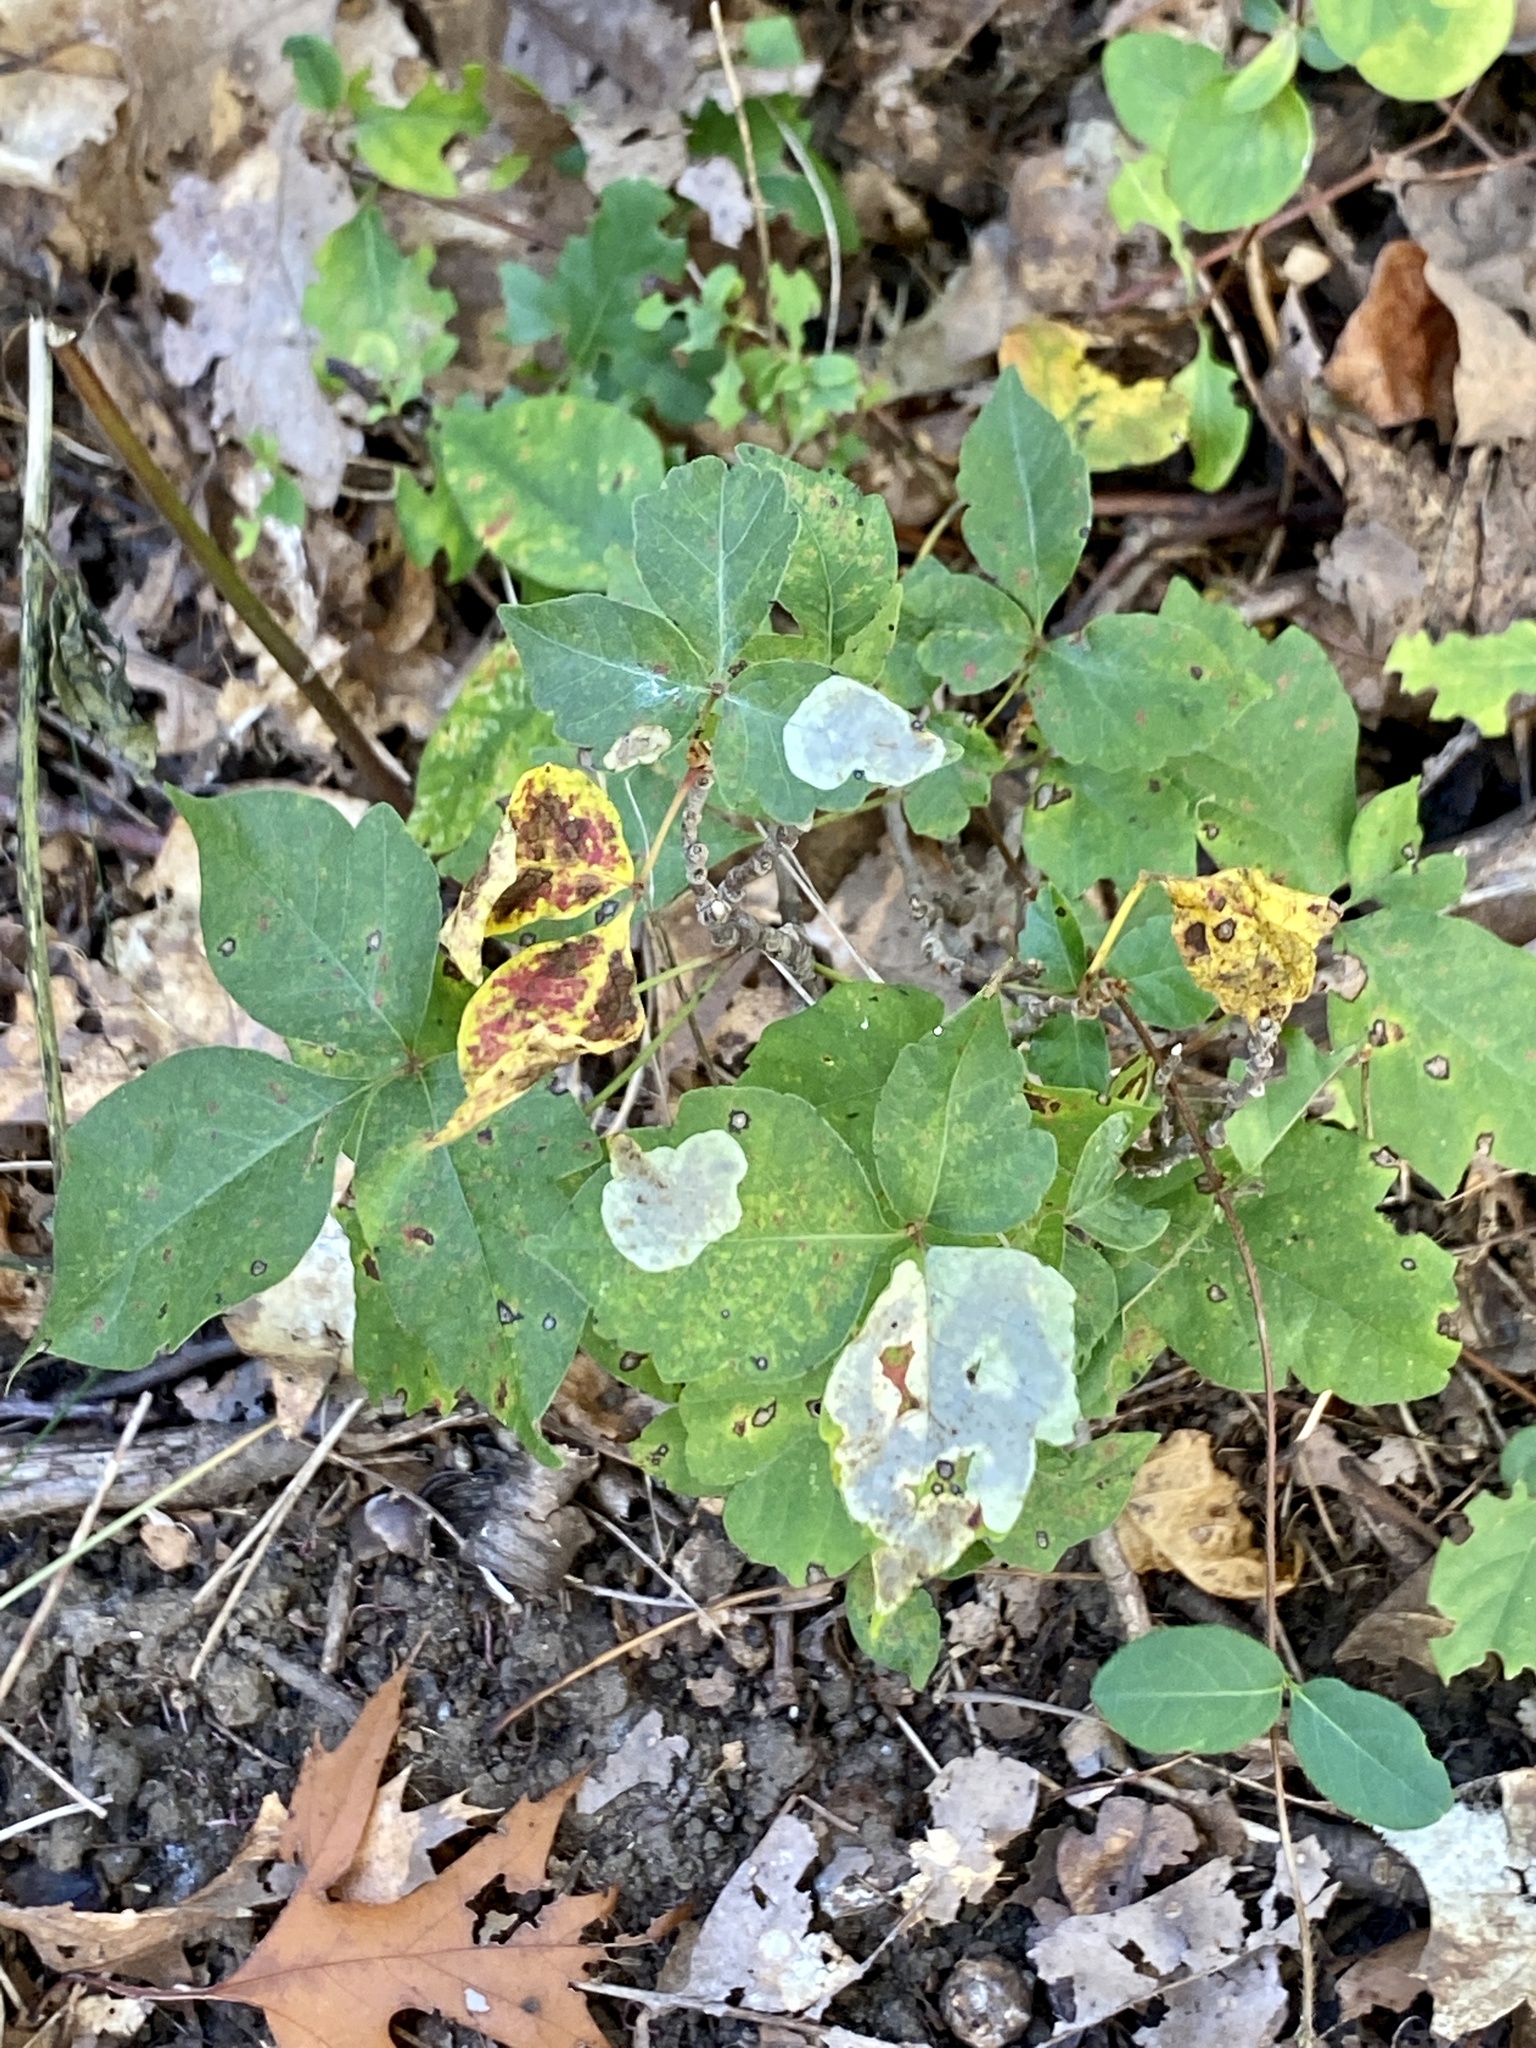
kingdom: Animalia
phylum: Arthropoda
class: Insecta
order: Lepidoptera
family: Gracillariidae
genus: Cameraria
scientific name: Cameraria guttifinitella
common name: Poison ivy leaf-miner moth
